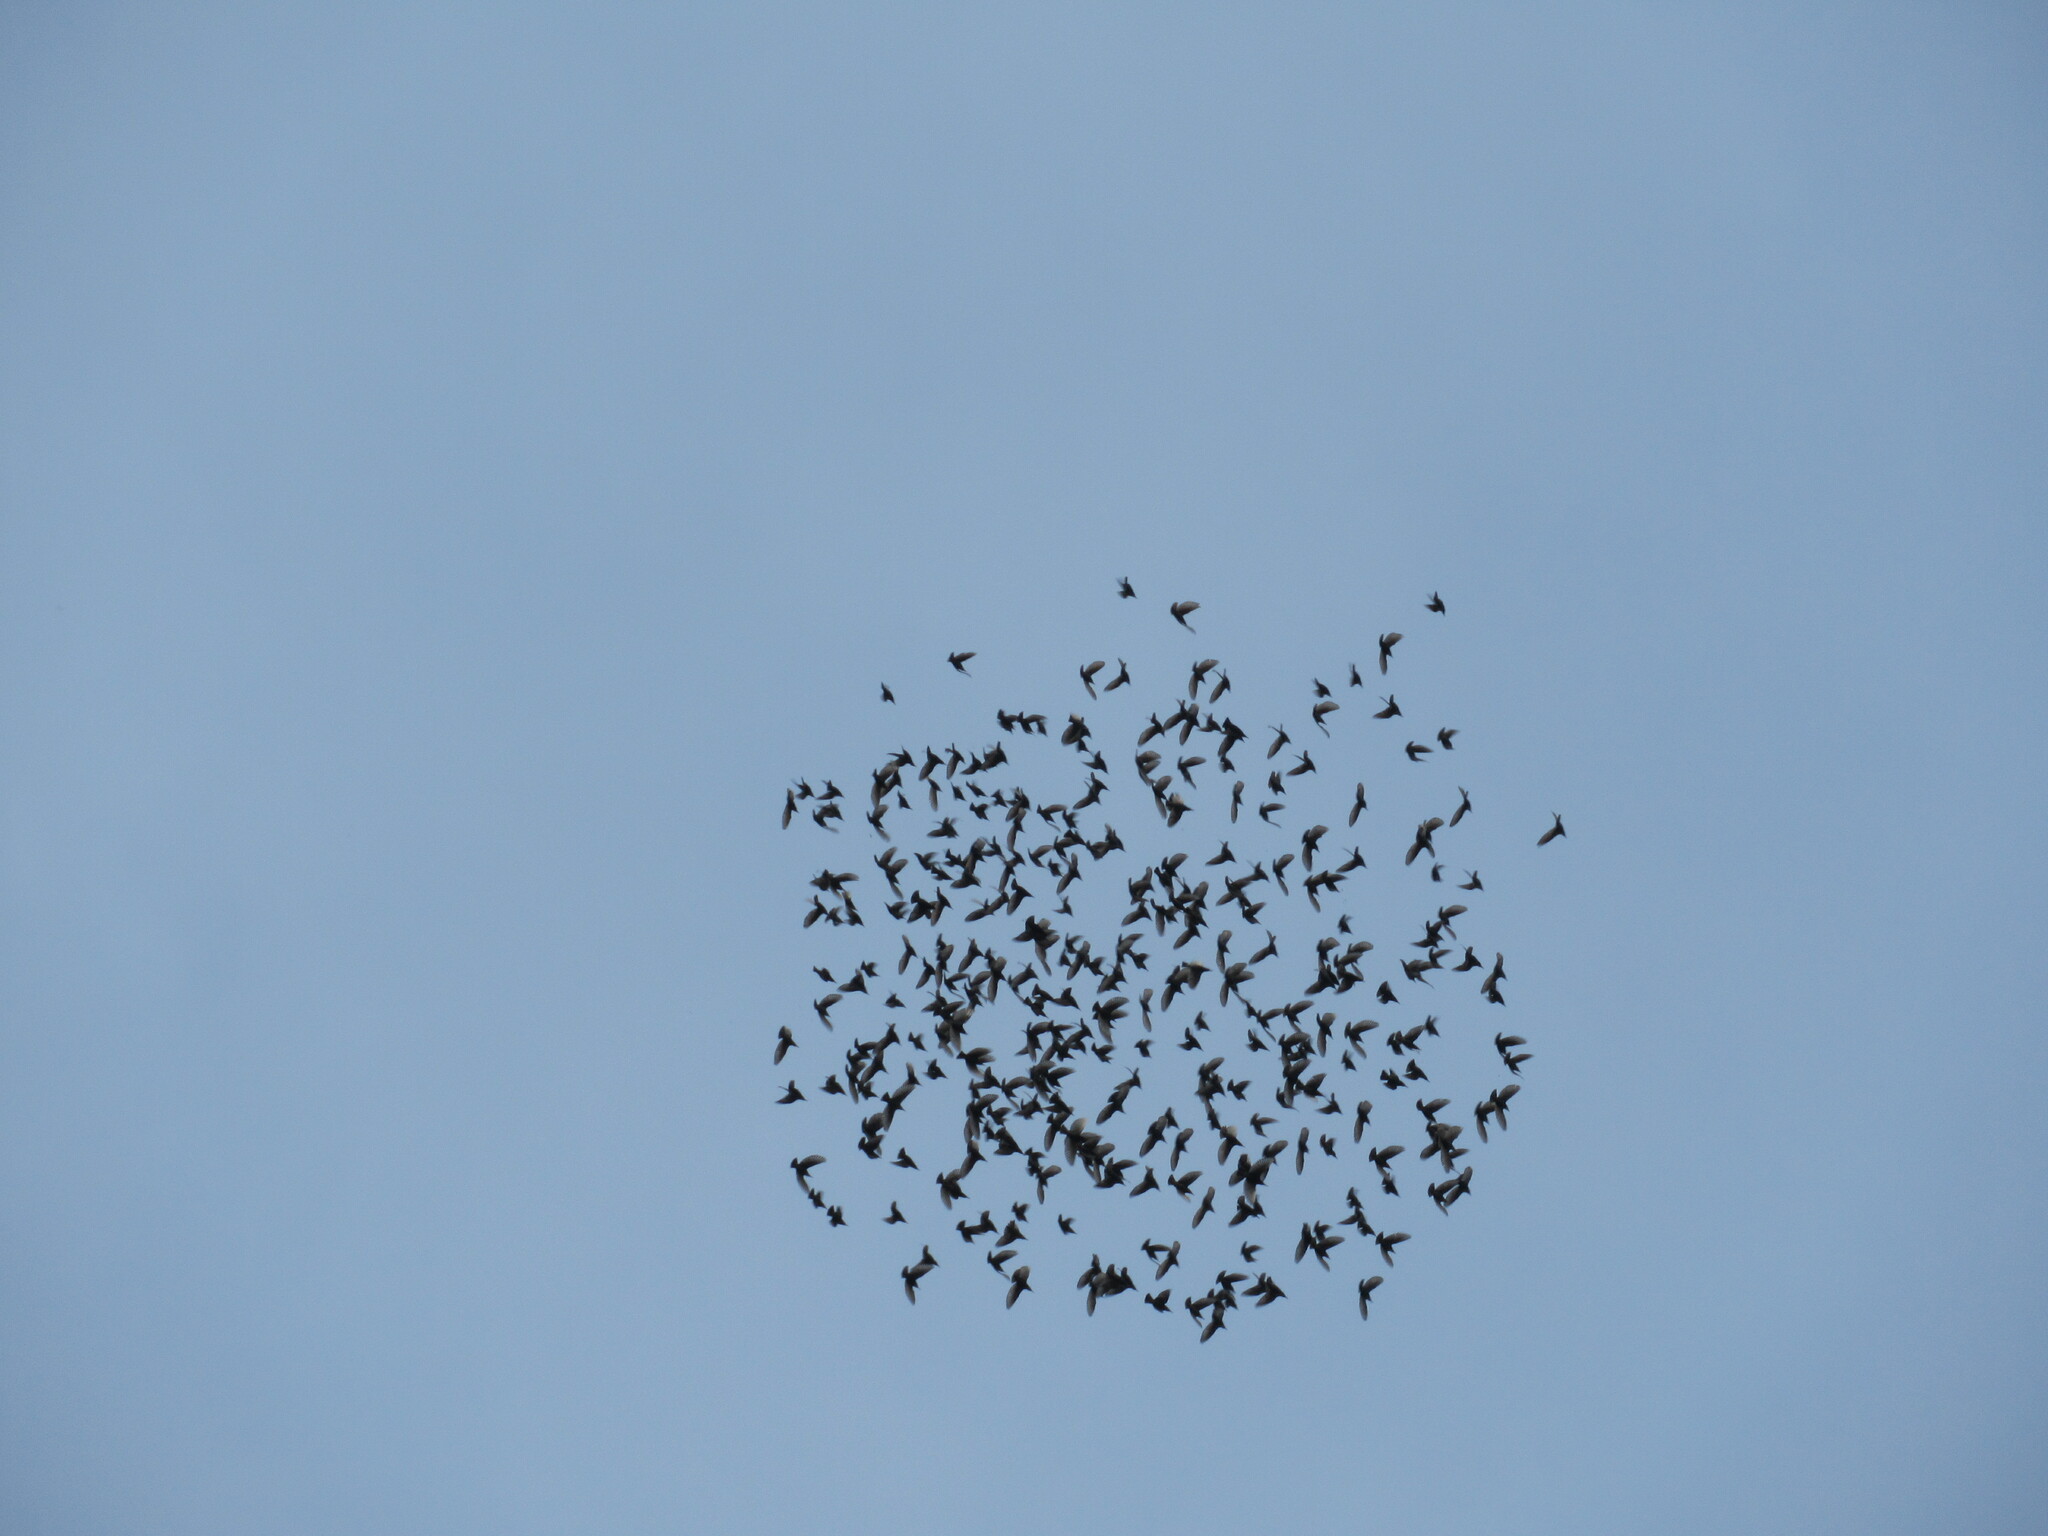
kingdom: Animalia
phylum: Chordata
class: Aves
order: Passeriformes
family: Sturnidae
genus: Sturnus
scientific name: Sturnus vulgaris
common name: Common starling
